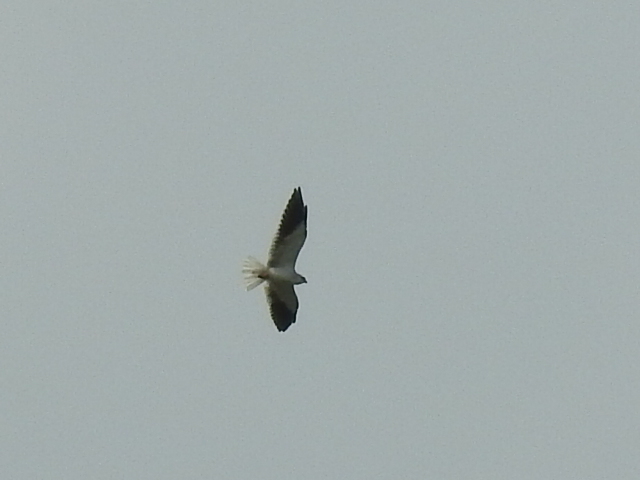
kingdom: Animalia
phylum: Chordata
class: Aves
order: Accipitriformes
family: Accipitridae
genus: Elanus
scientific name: Elanus caeruleus
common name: Black-winged kite
